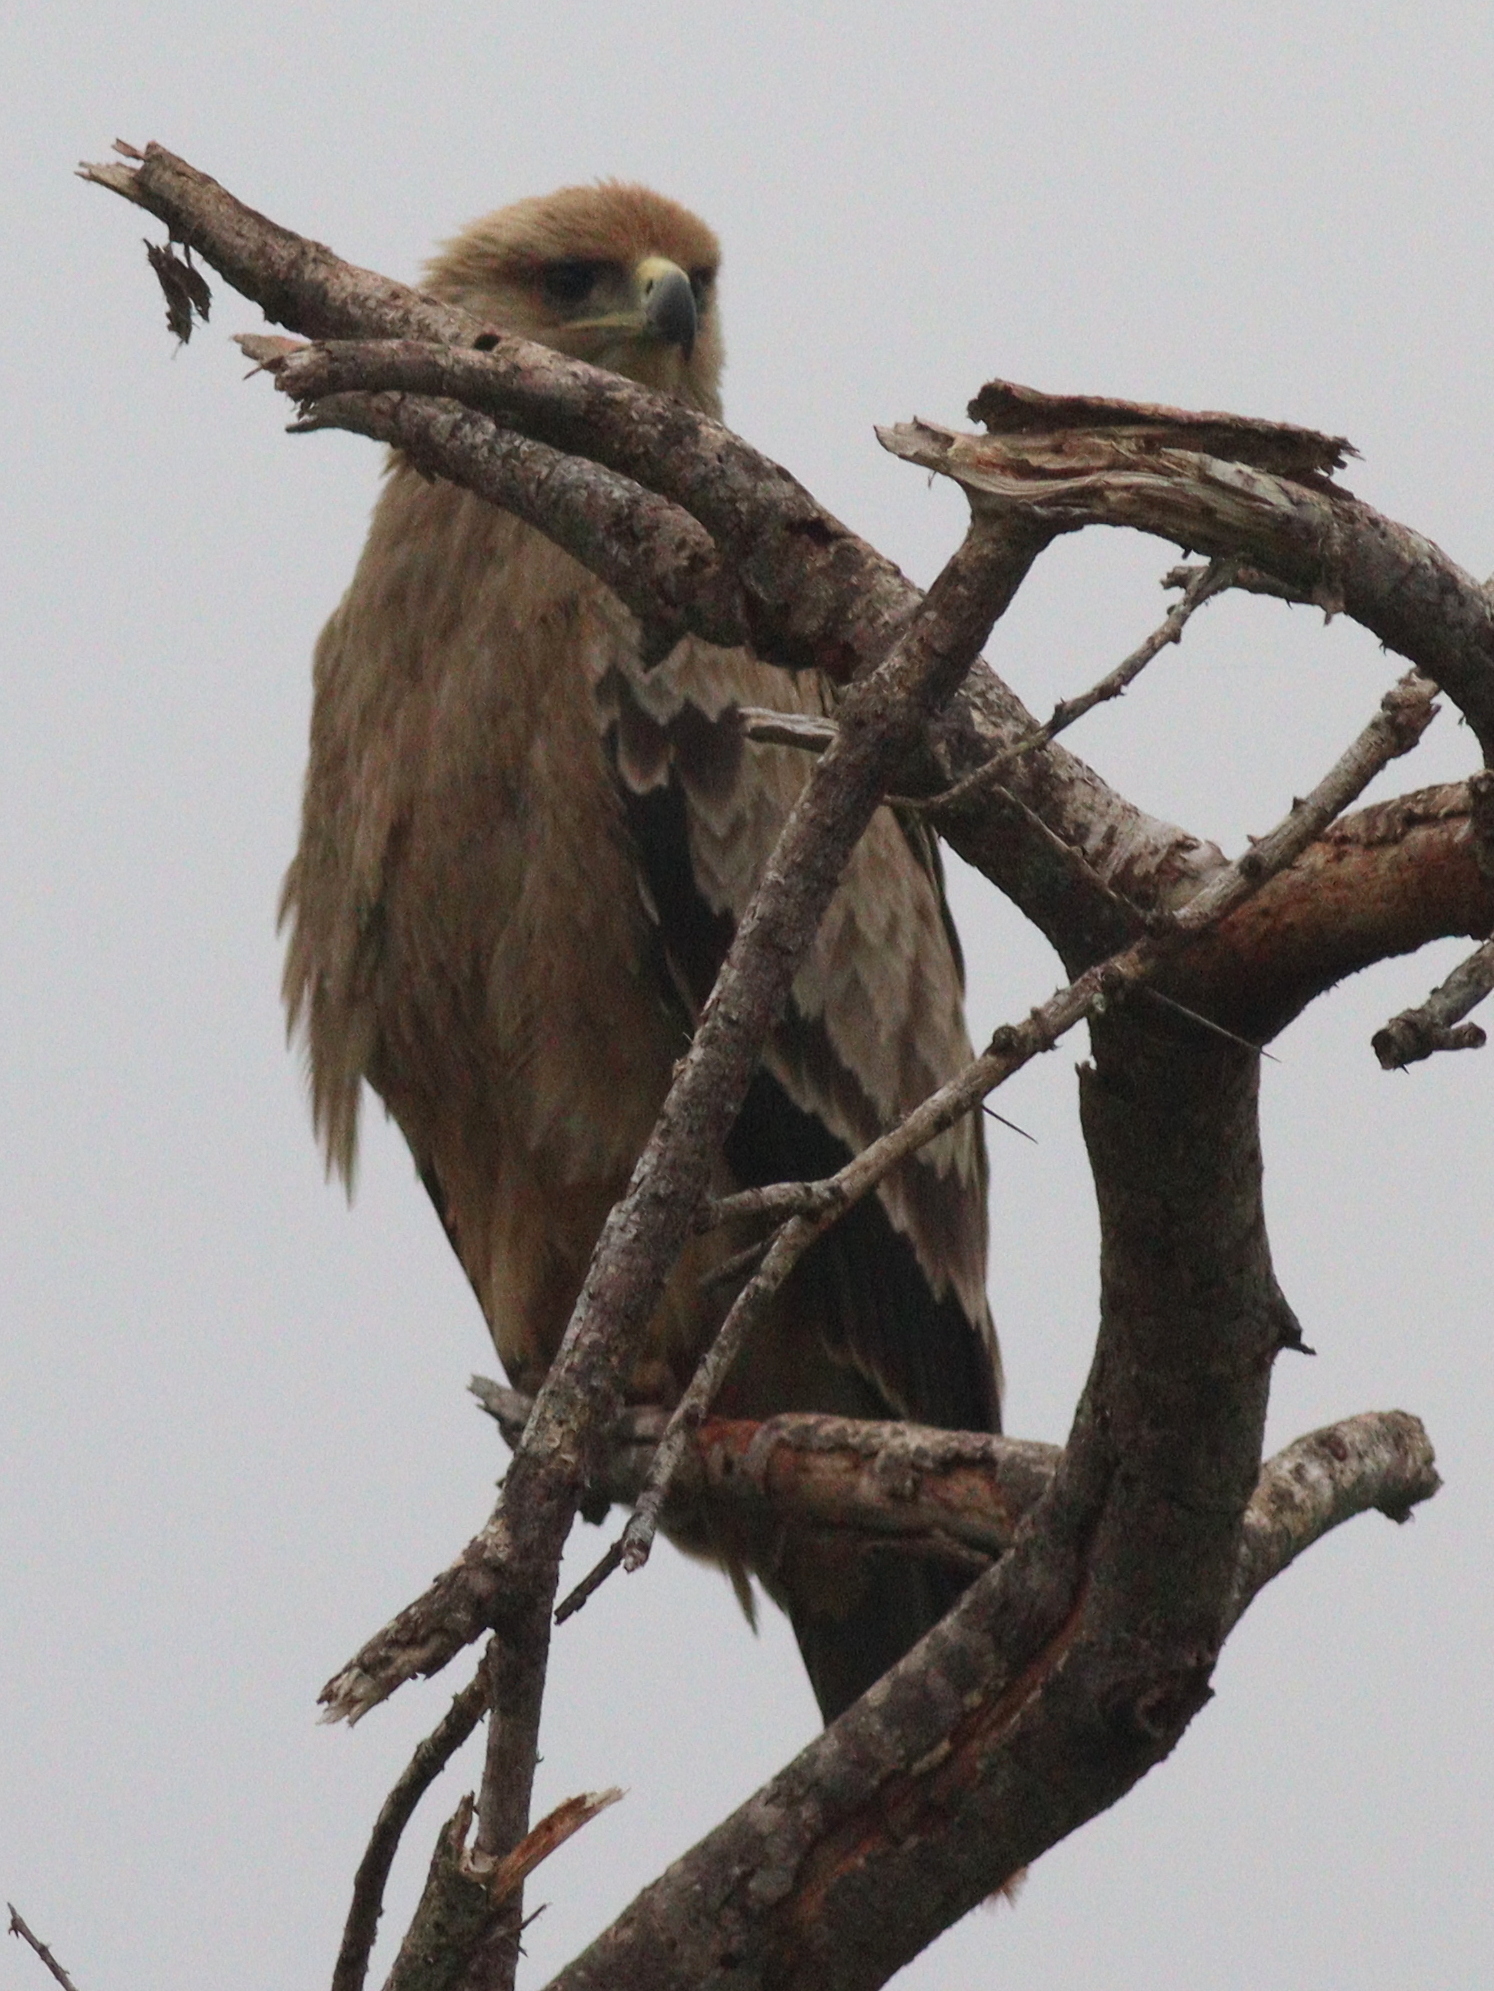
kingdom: Animalia
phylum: Chordata
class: Aves
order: Accipitriformes
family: Accipitridae
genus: Aquila
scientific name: Aquila rapax
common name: Tawny eagle
